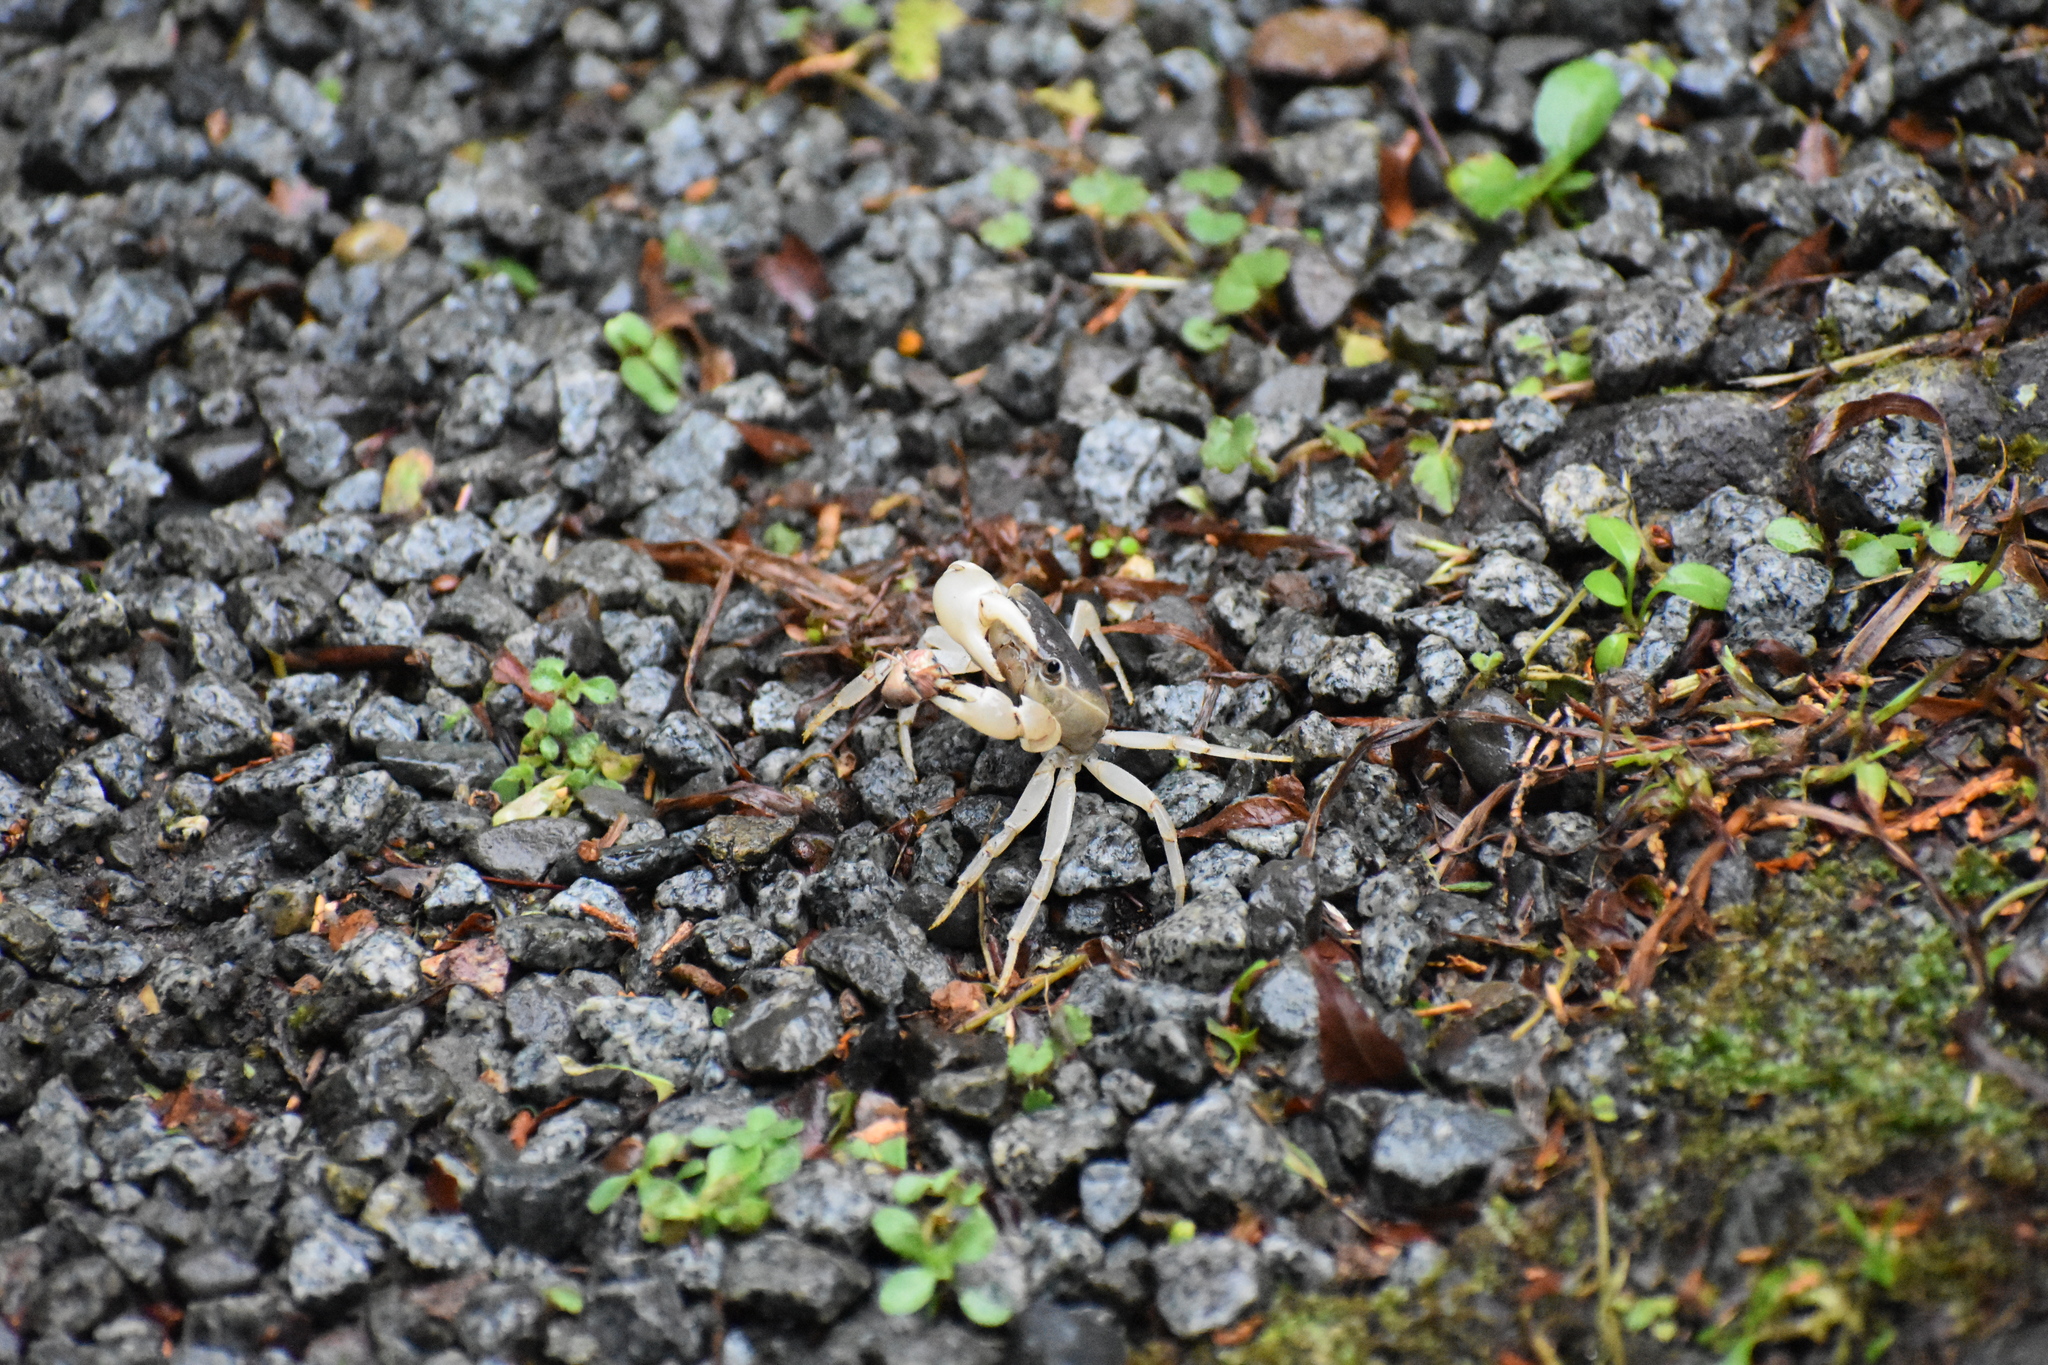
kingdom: Animalia
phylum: Arthropoda
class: Malacostraca
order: Decapoda
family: Potamidae
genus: Geothelphusa
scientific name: Geothelphusa dehaani
